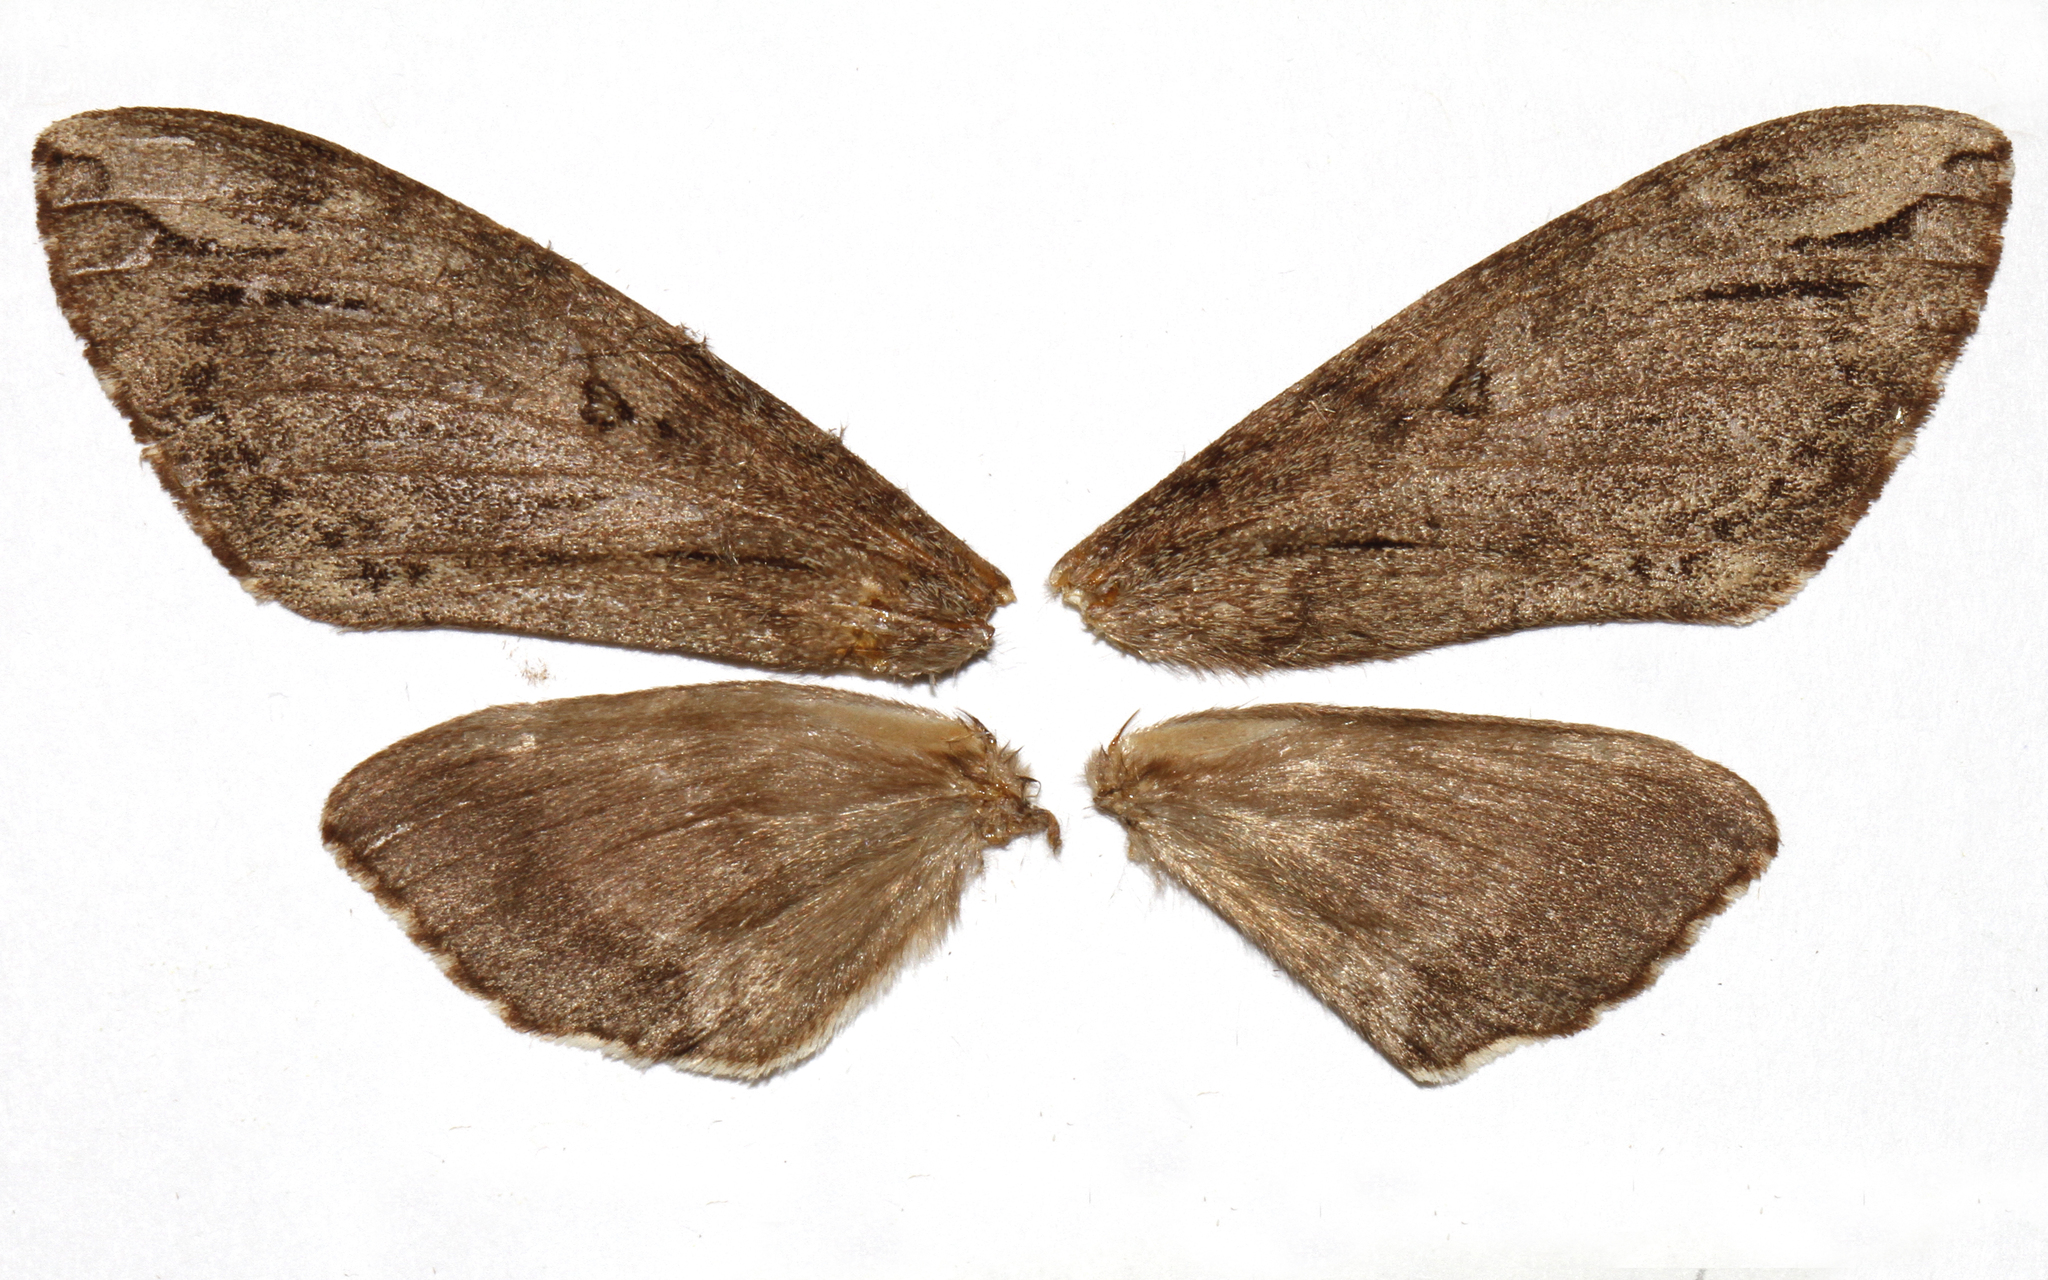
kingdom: Animalia
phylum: Arthropoda
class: Insecta
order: Lepidoptera
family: Sphingidae
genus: Ceratomia
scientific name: Ceratomia catalpae
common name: Catalpa hornworm
